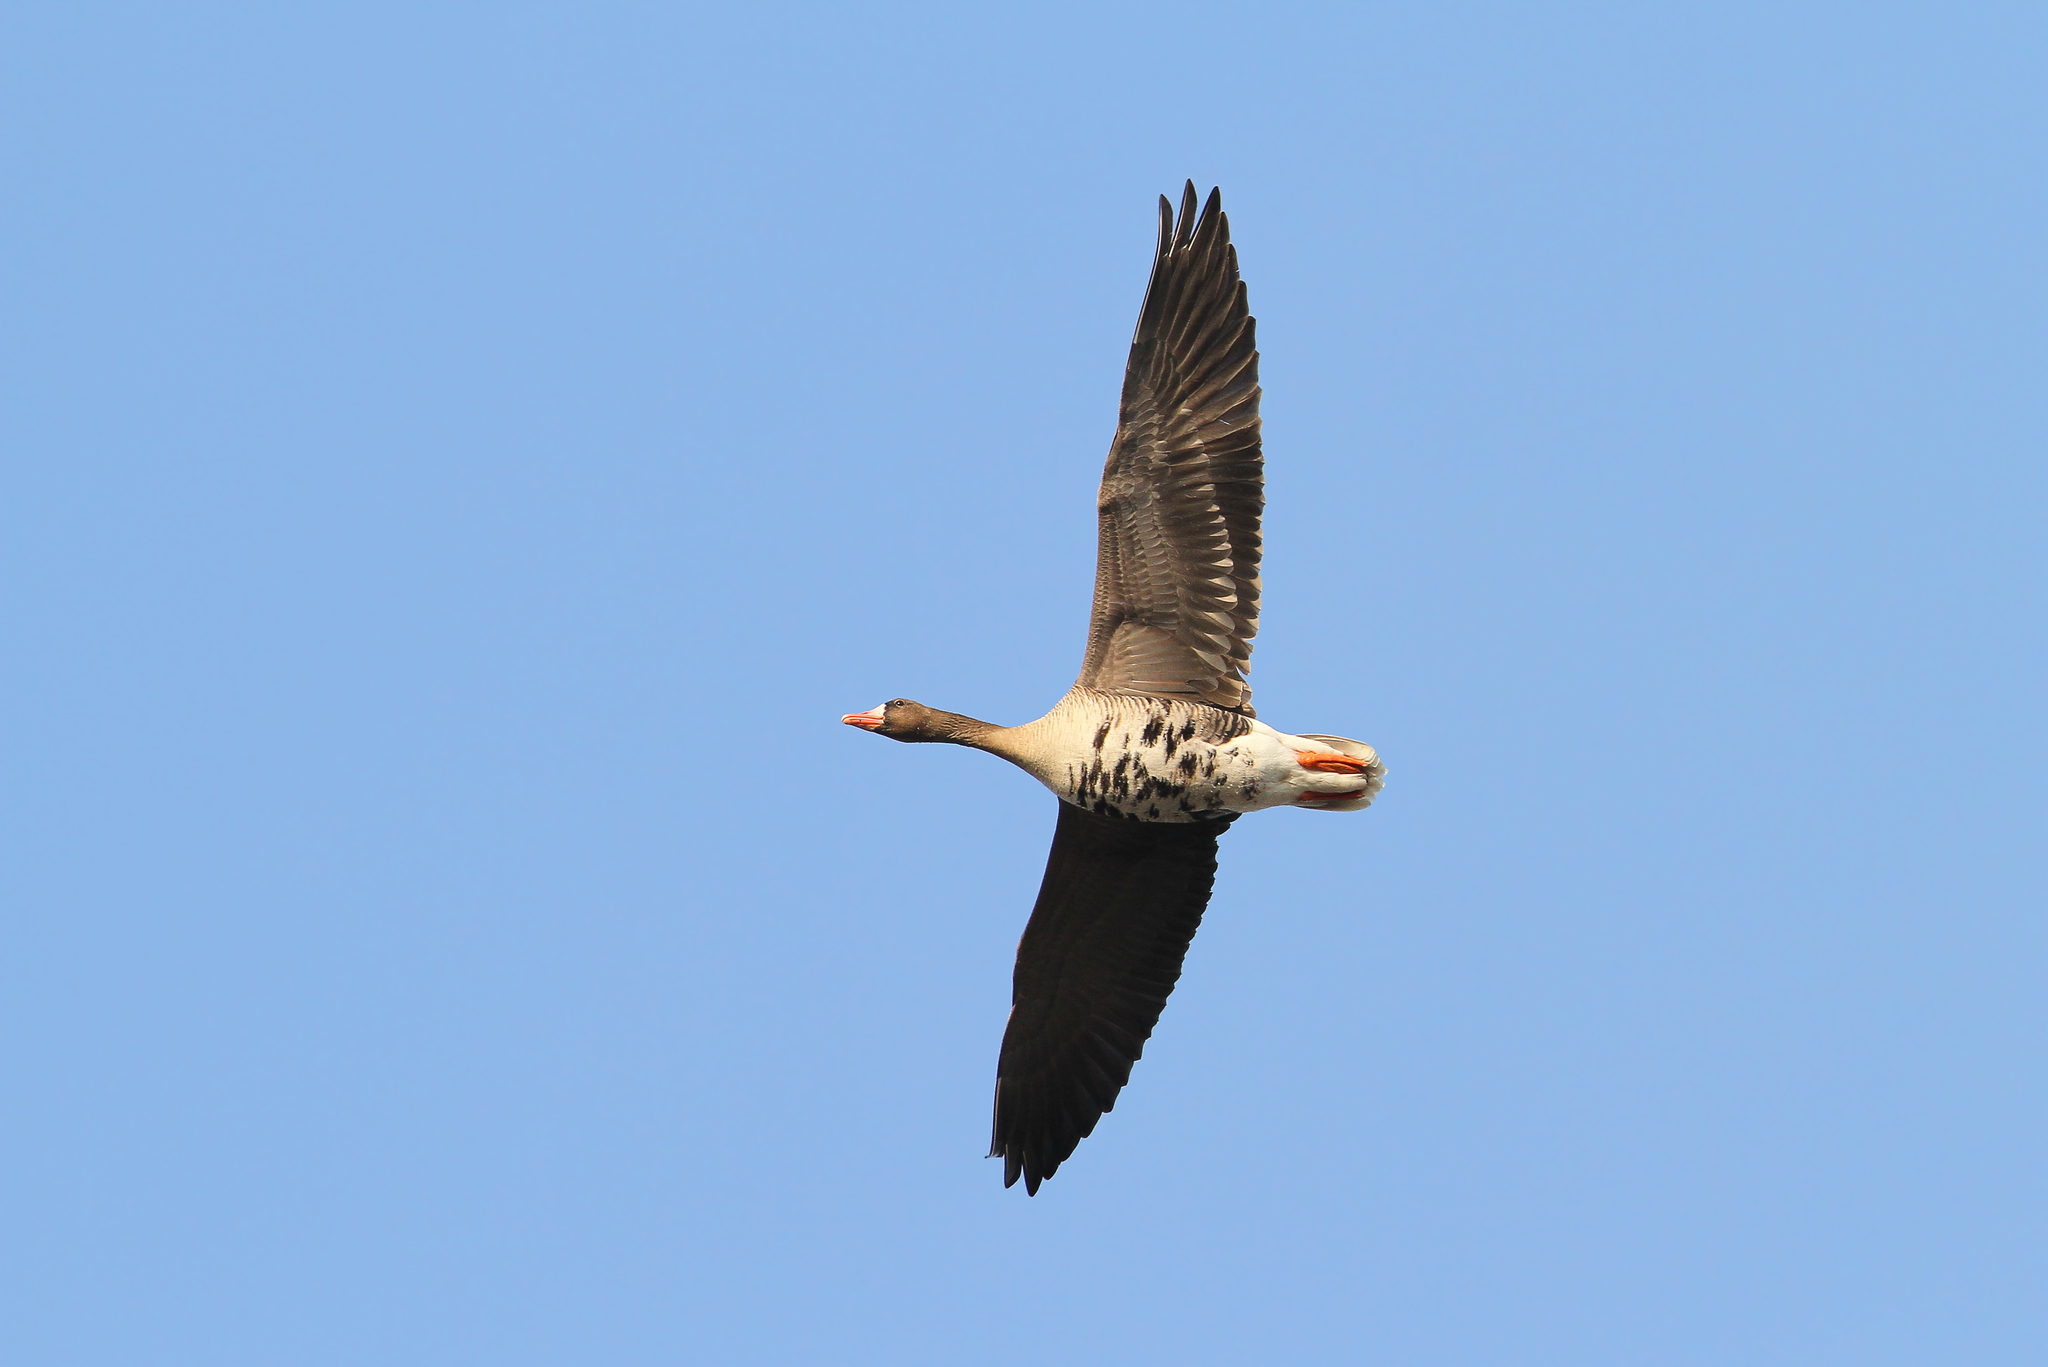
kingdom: Animalia
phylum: Chordata
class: Aves
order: Anseriformes
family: Anatidae
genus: Anser
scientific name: Anser albifrons
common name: Greater white-fronted goose
